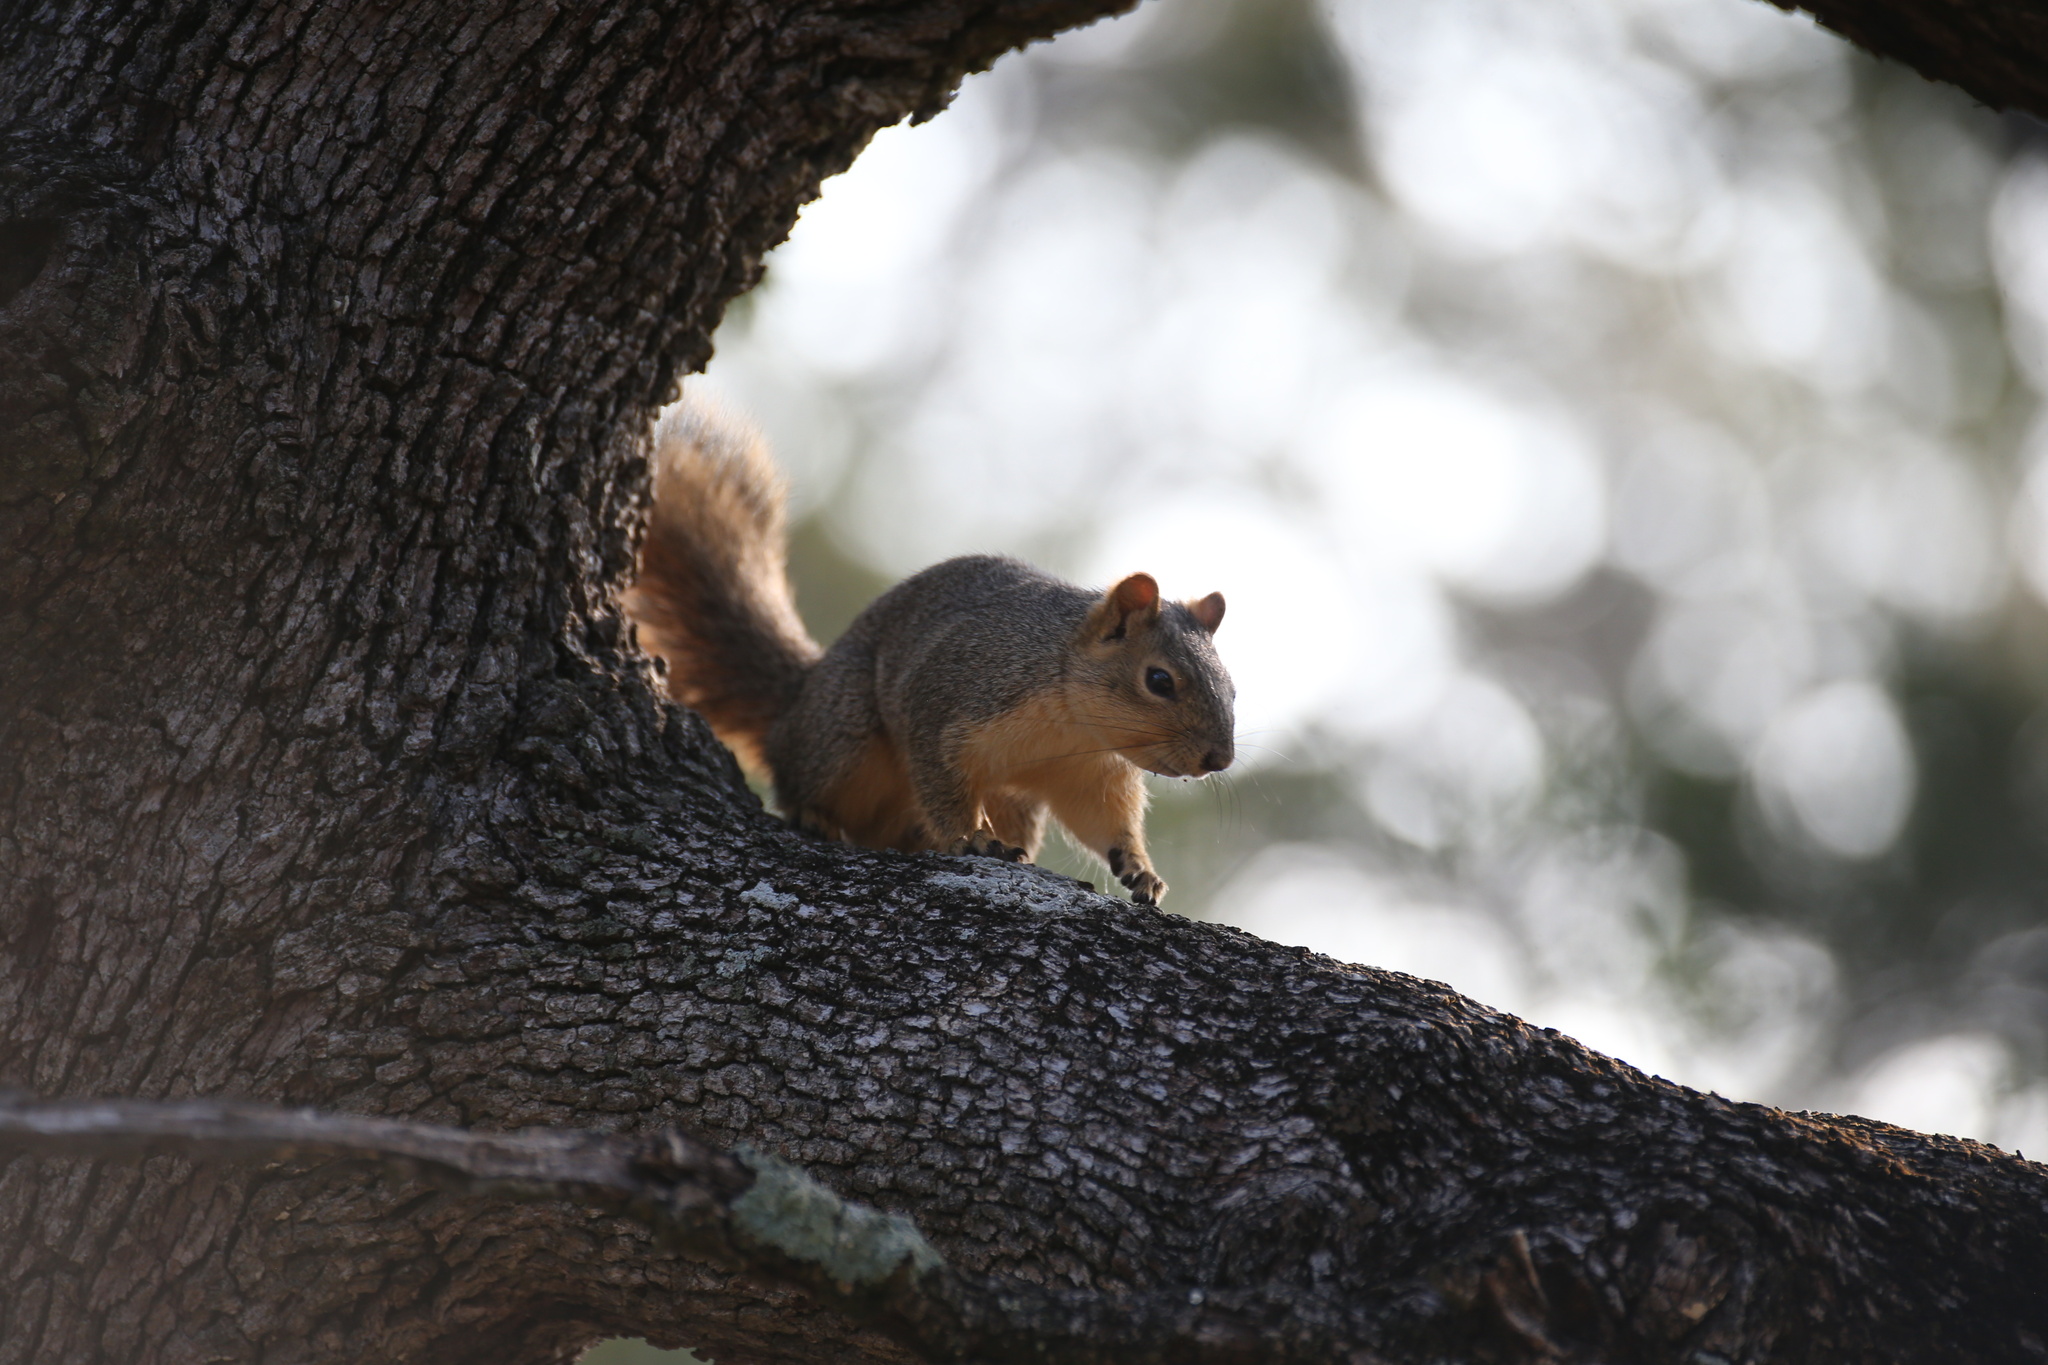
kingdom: Animalia
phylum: Chordata
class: Mammalia
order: Rodentia
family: Sciuridae
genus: Sciurus
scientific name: Sciurus niger
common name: Fox squirrel
